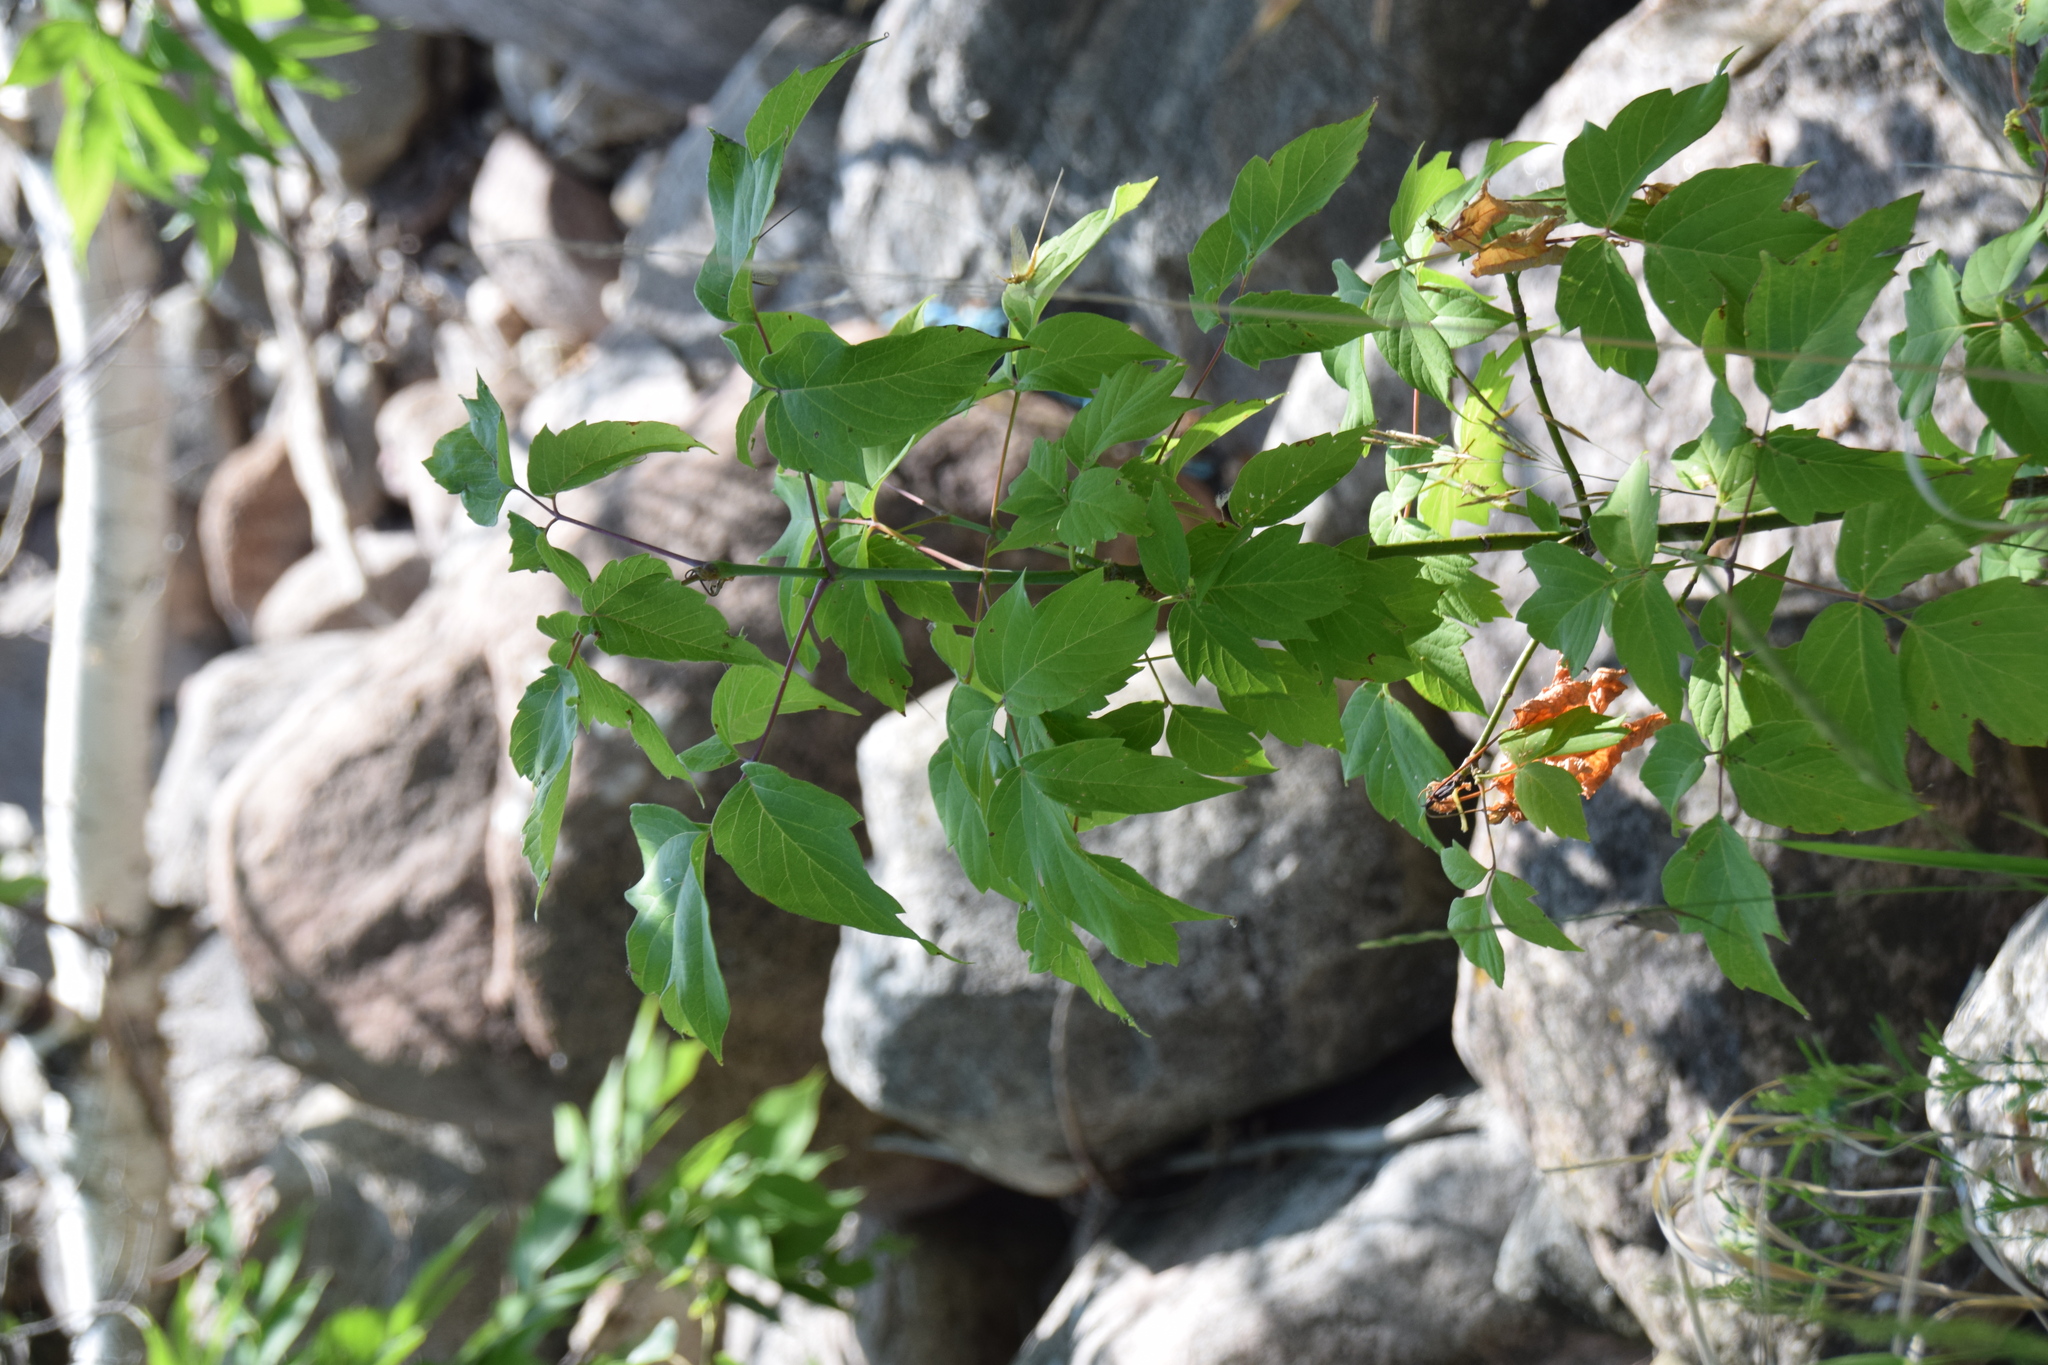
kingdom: Plantae
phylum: Tracheophyta
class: Magnoliopsida
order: Sapindales
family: Sapindaceae
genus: Acer
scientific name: Acer negundo
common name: Ashleaf maple
